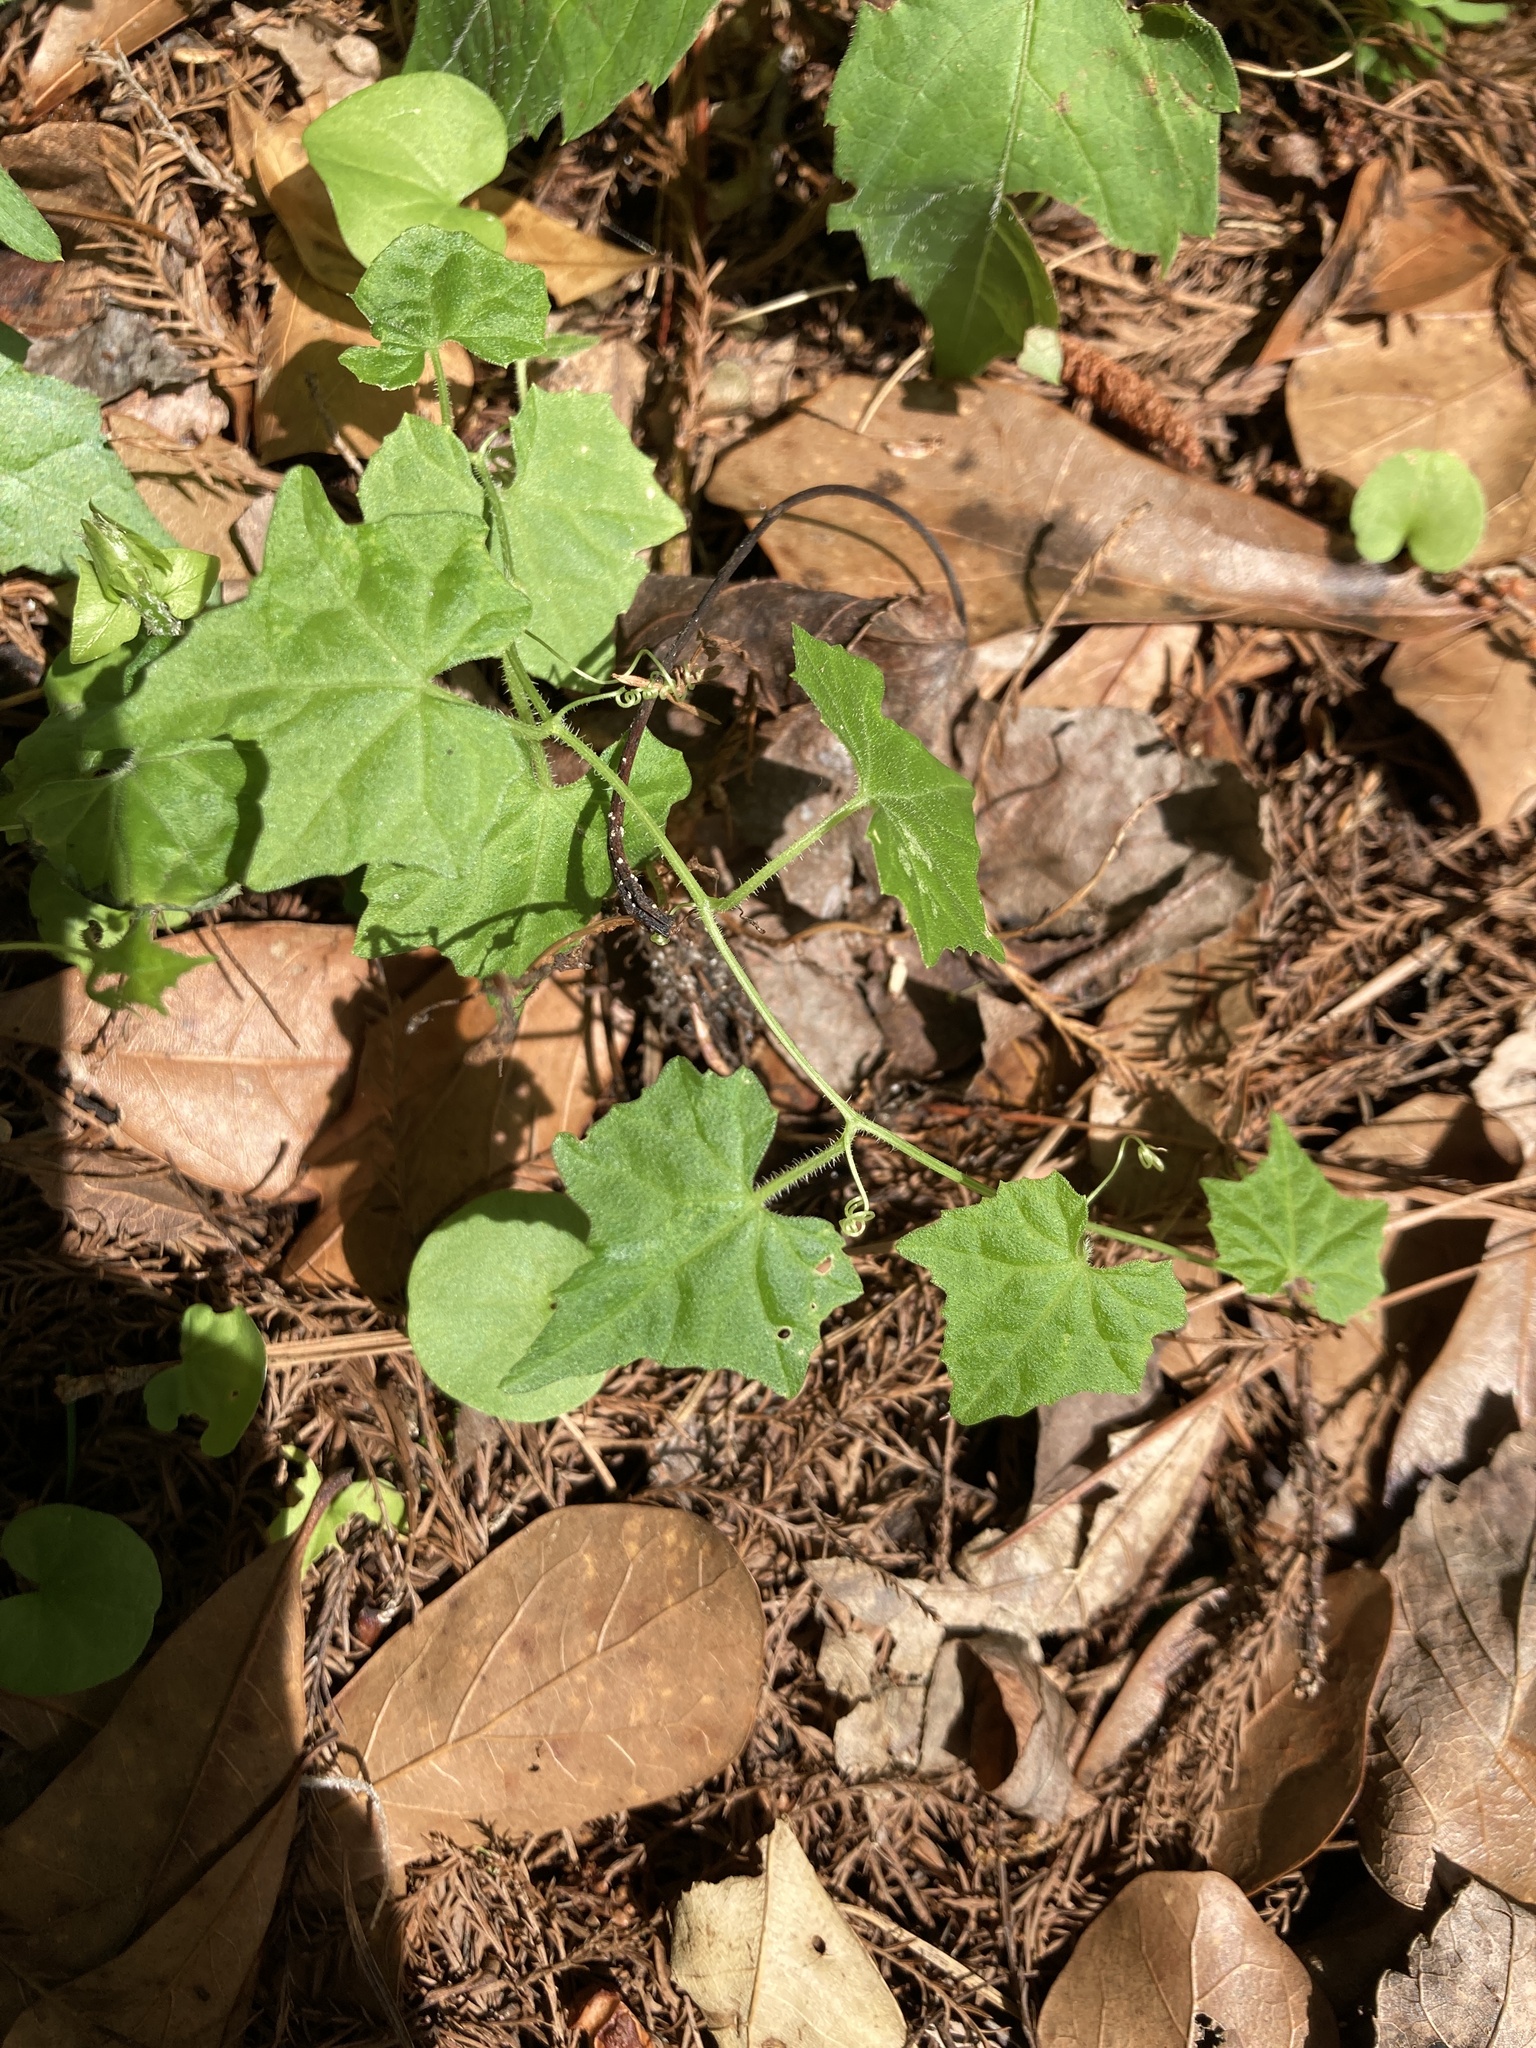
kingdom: Plantae
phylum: Tracheophyta
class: Magnoliopsida
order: Cucurbitales
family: Cucurbitaceae
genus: Melothria
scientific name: Melothria pendula
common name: Creeping-cucumber
